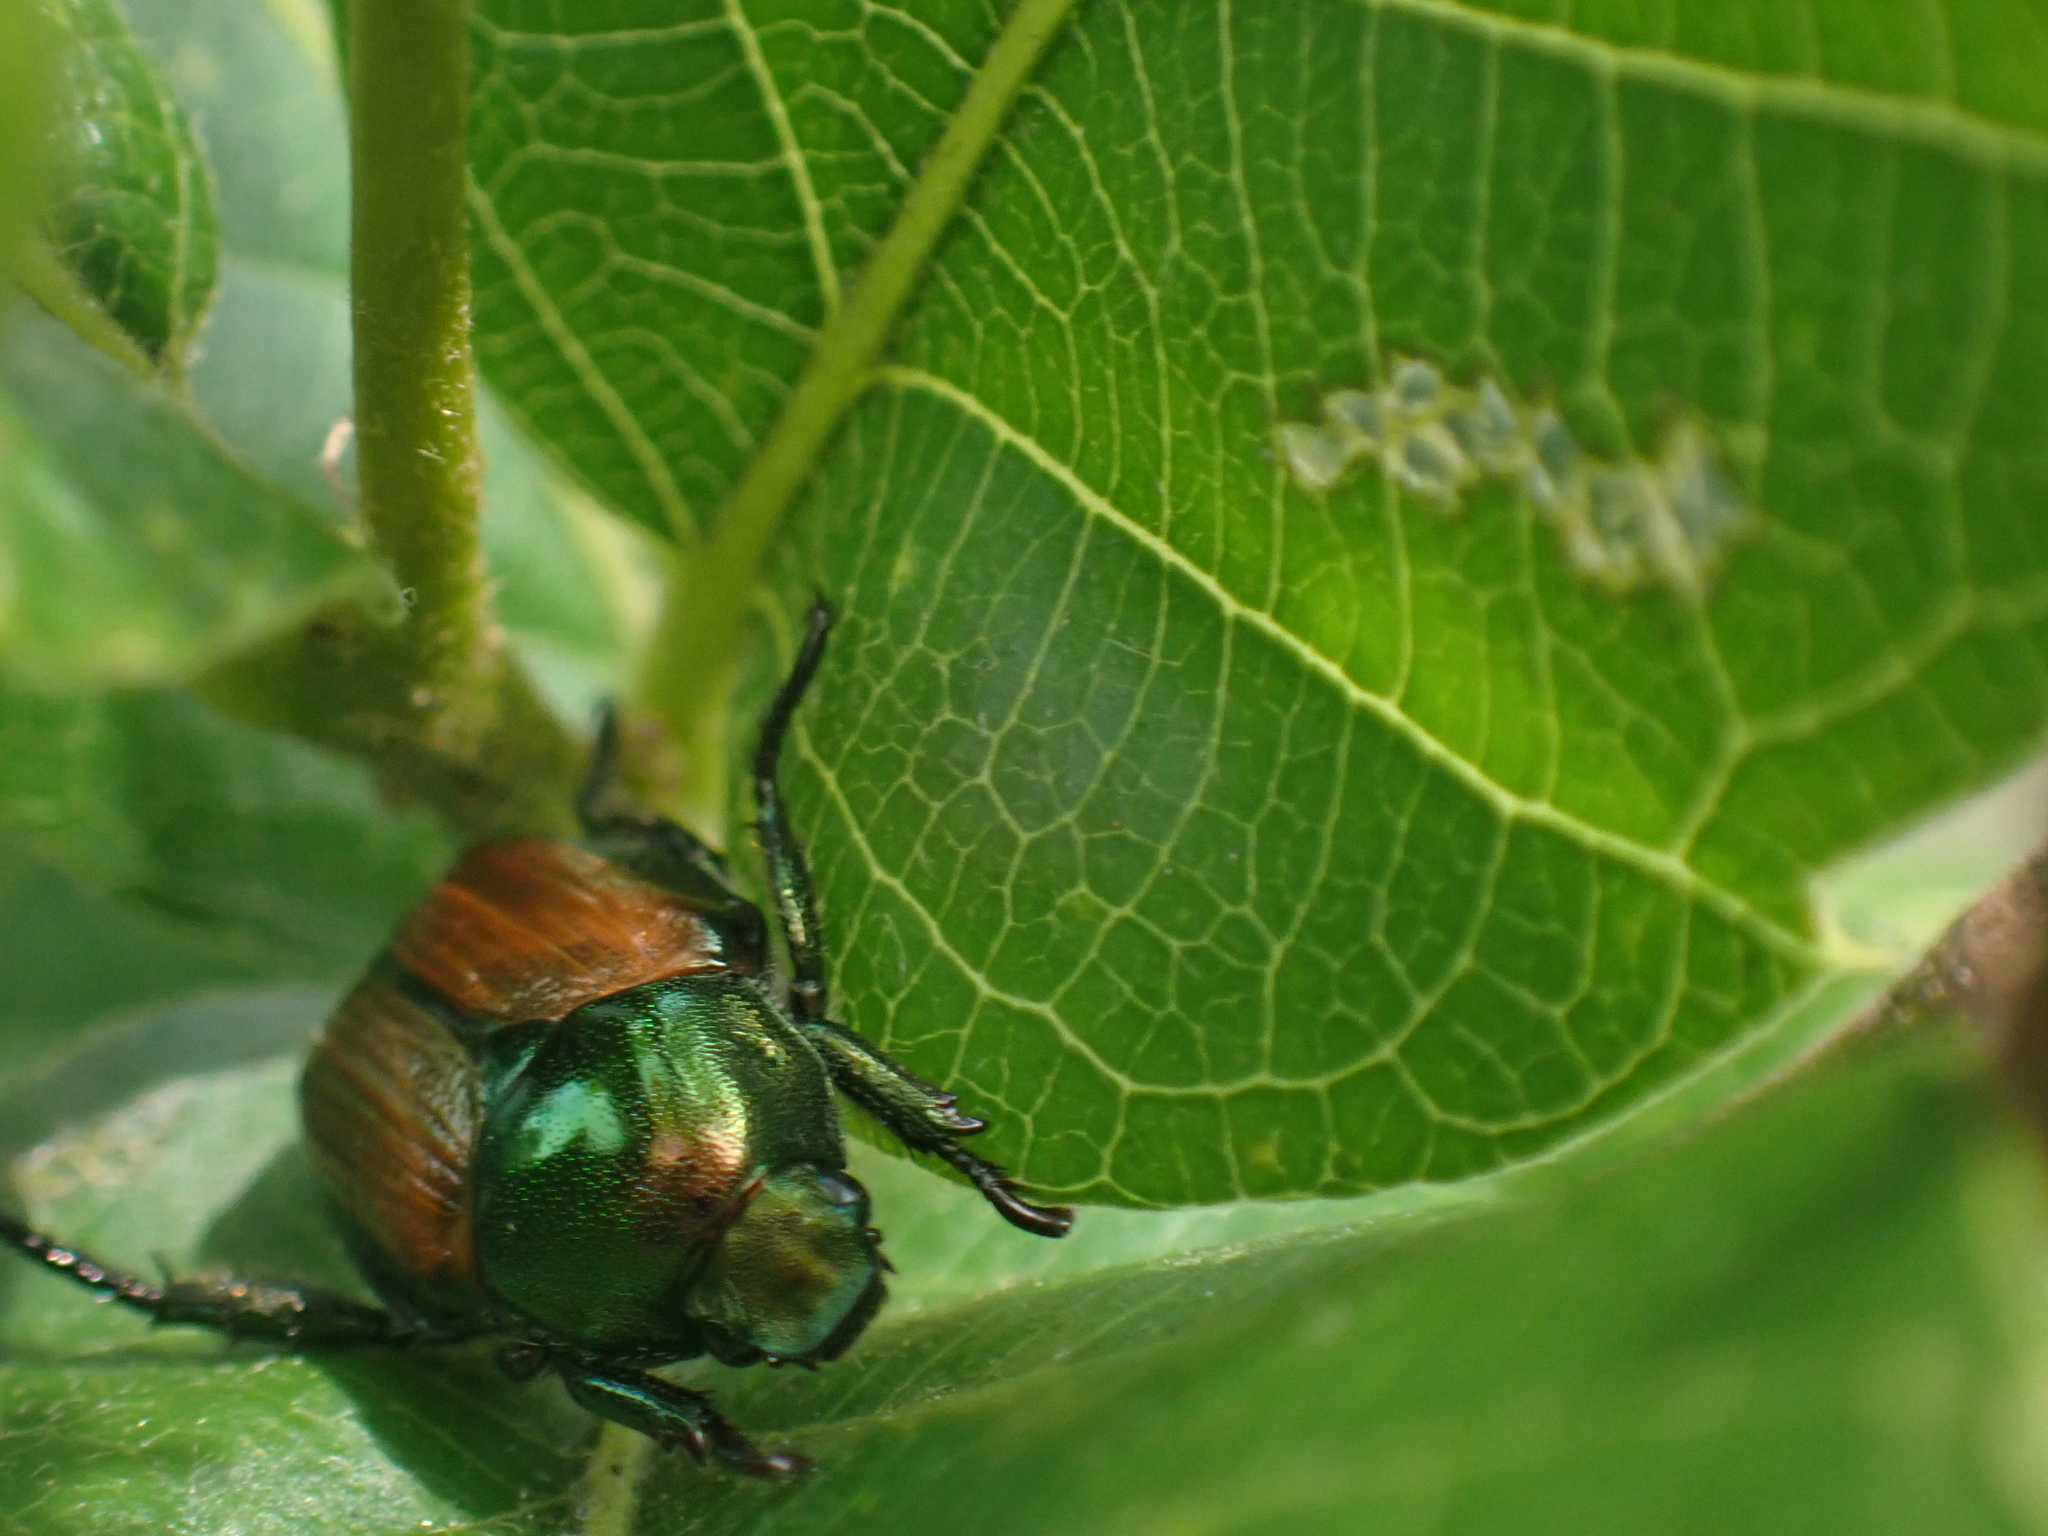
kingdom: Animalia
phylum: Arthropoda
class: Insecta
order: Coleoptera
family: Scarabaeidae
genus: Popillia
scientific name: Popillia japonica
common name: Japanese beetle
